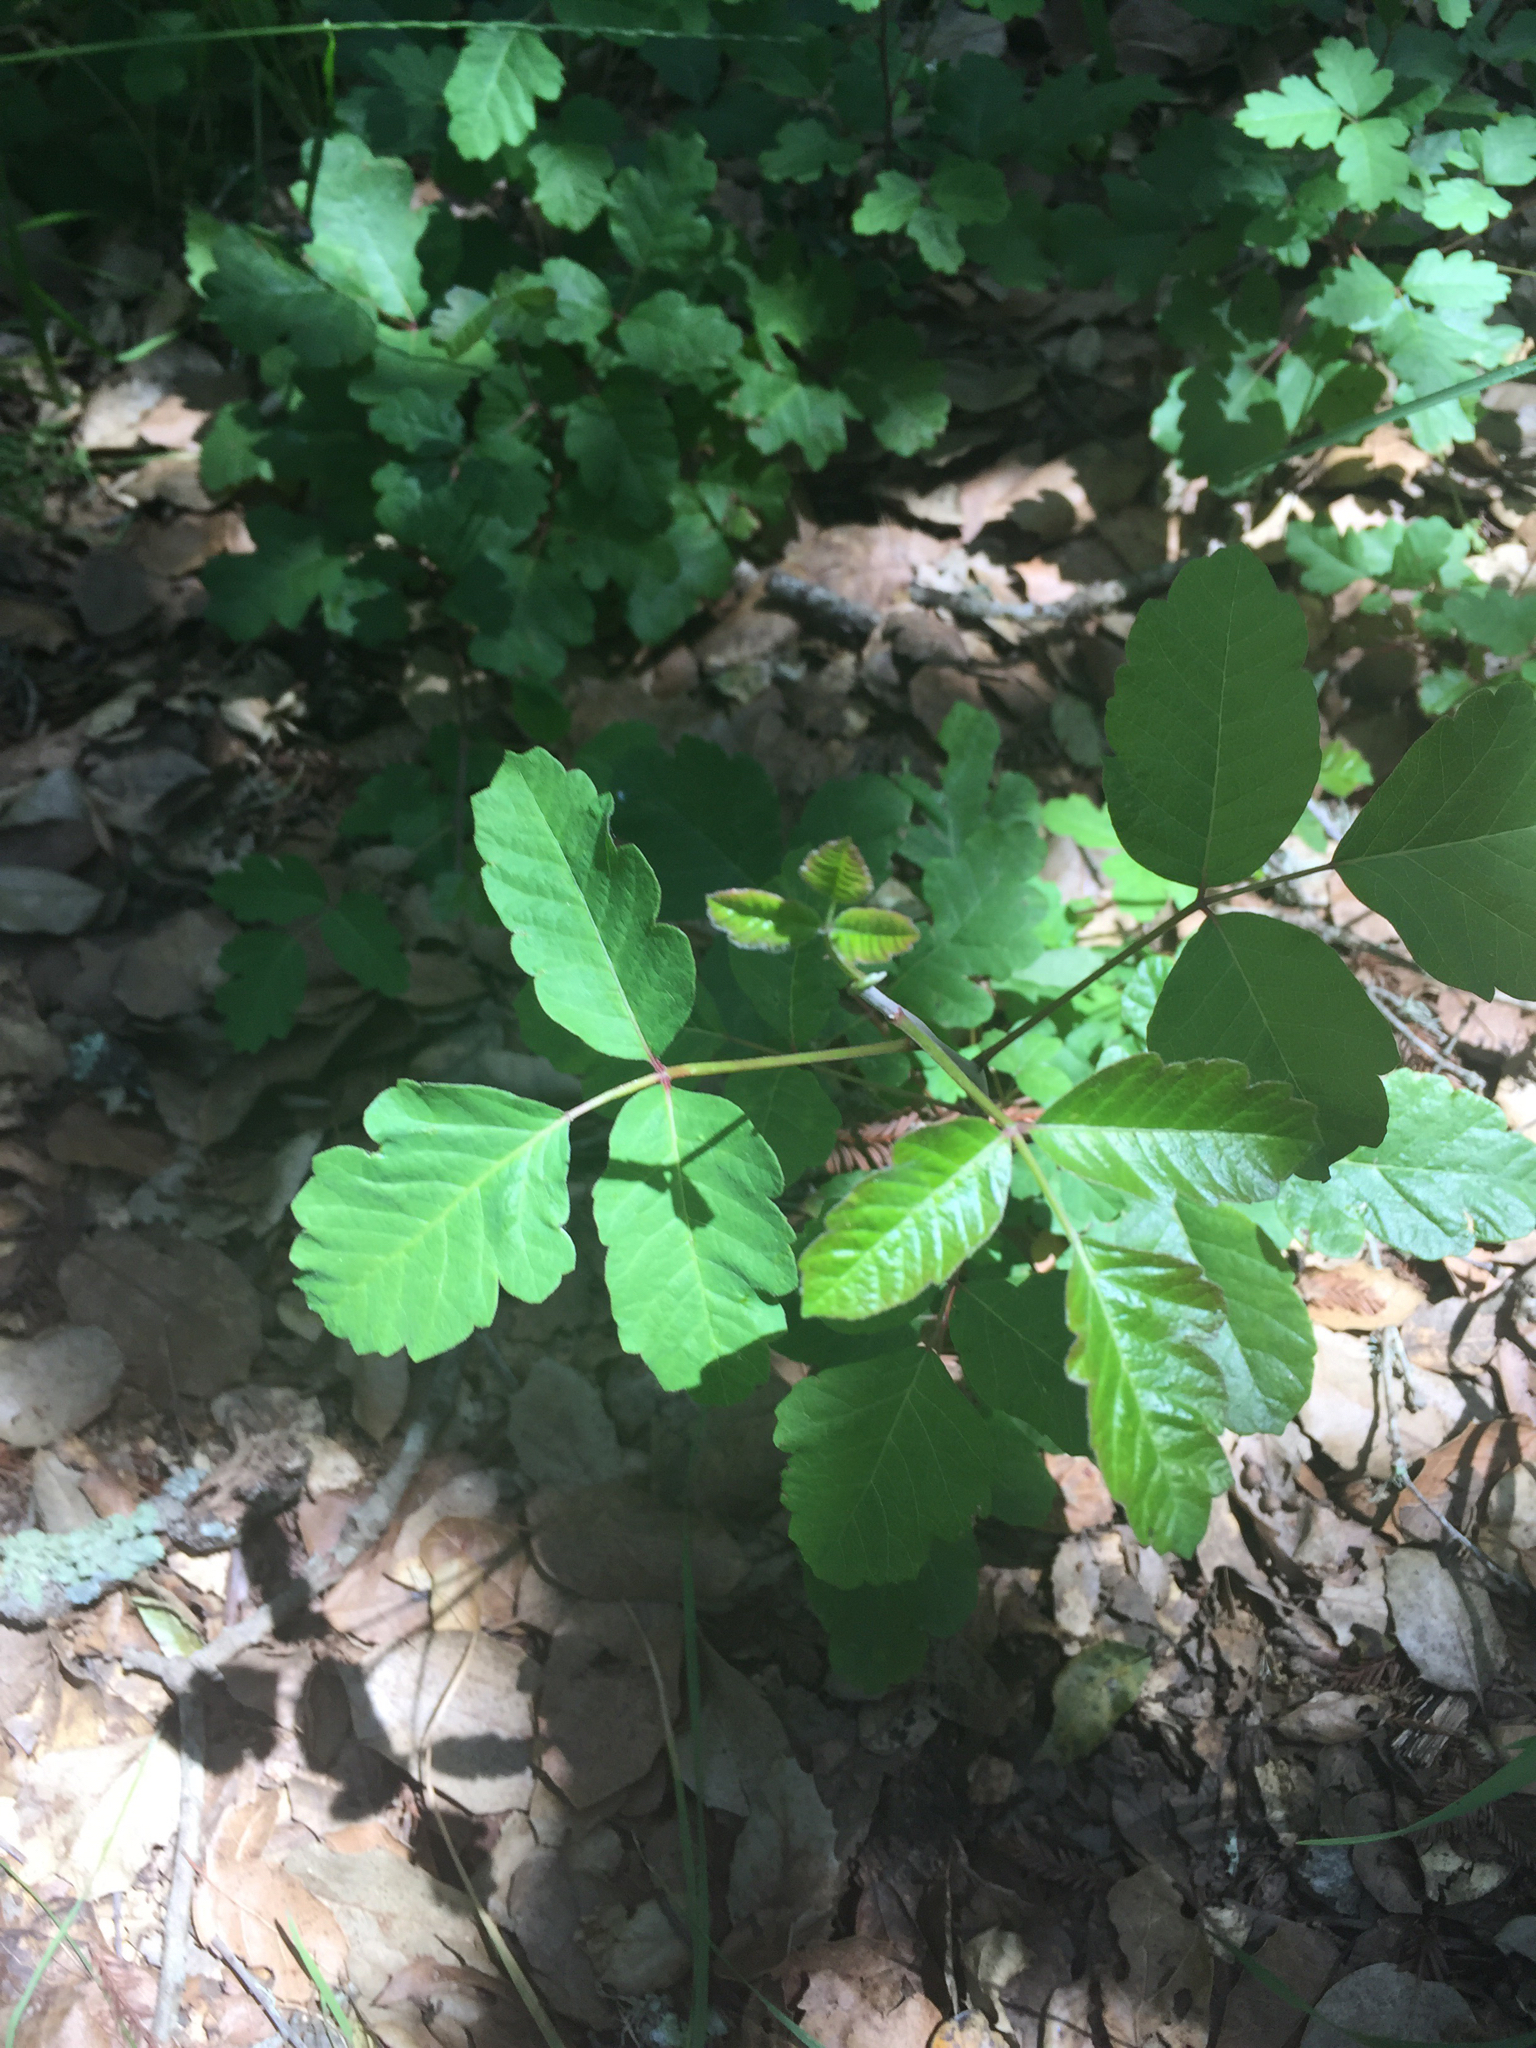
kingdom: Plantae
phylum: Tracheophyta
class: Magnoliopsida
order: Sapindales
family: Anacardiaceae
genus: Toxicodendron
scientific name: Toxicodendron diversilobum
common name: Pacific poison-oak
